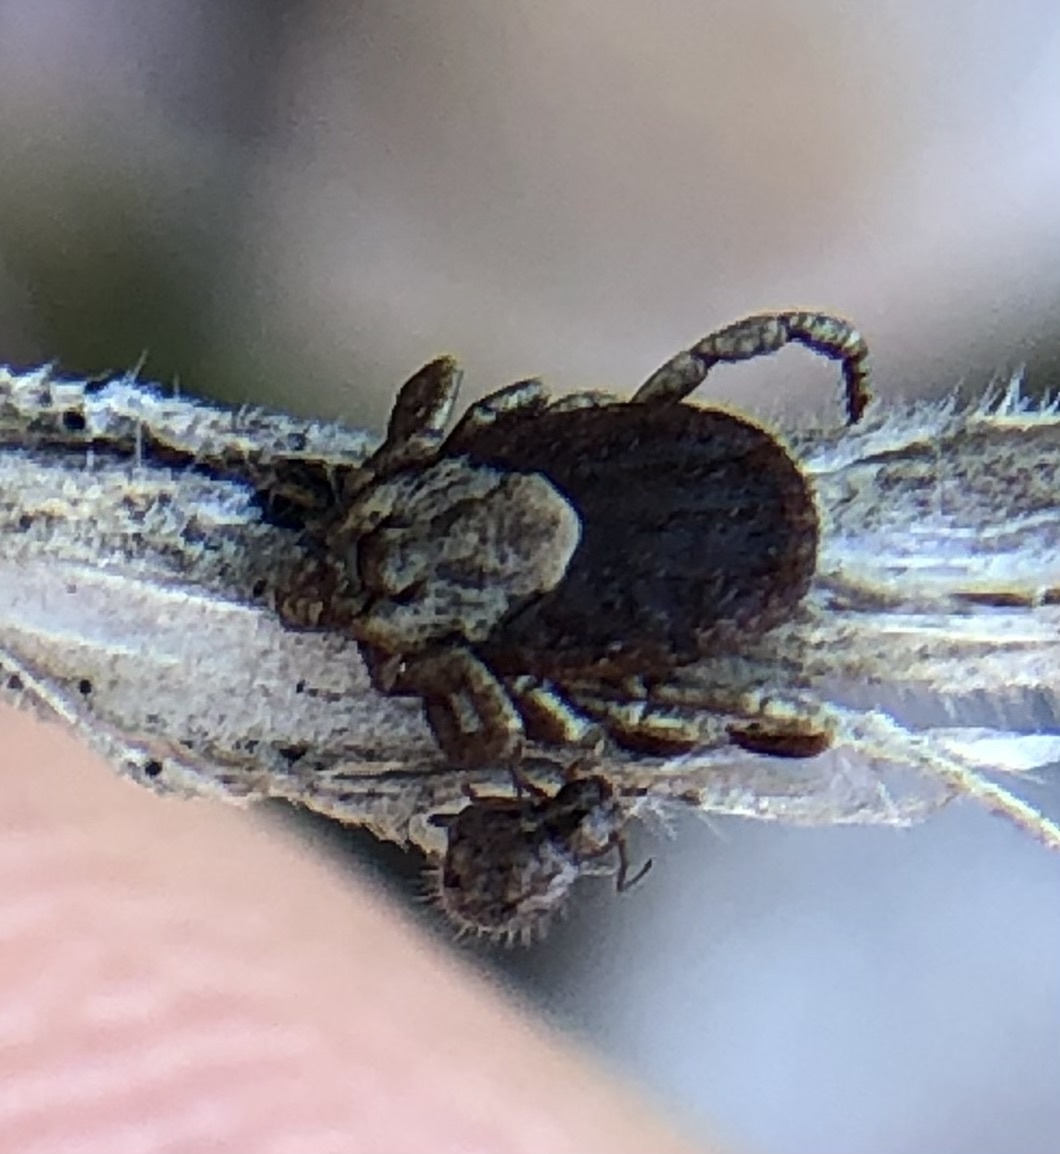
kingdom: Animalia
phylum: Arthropoda
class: Arachnida
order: Ixodida
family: Ixodidae
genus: Dermacentor
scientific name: Dermacentor occidentalis
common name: Net tick
